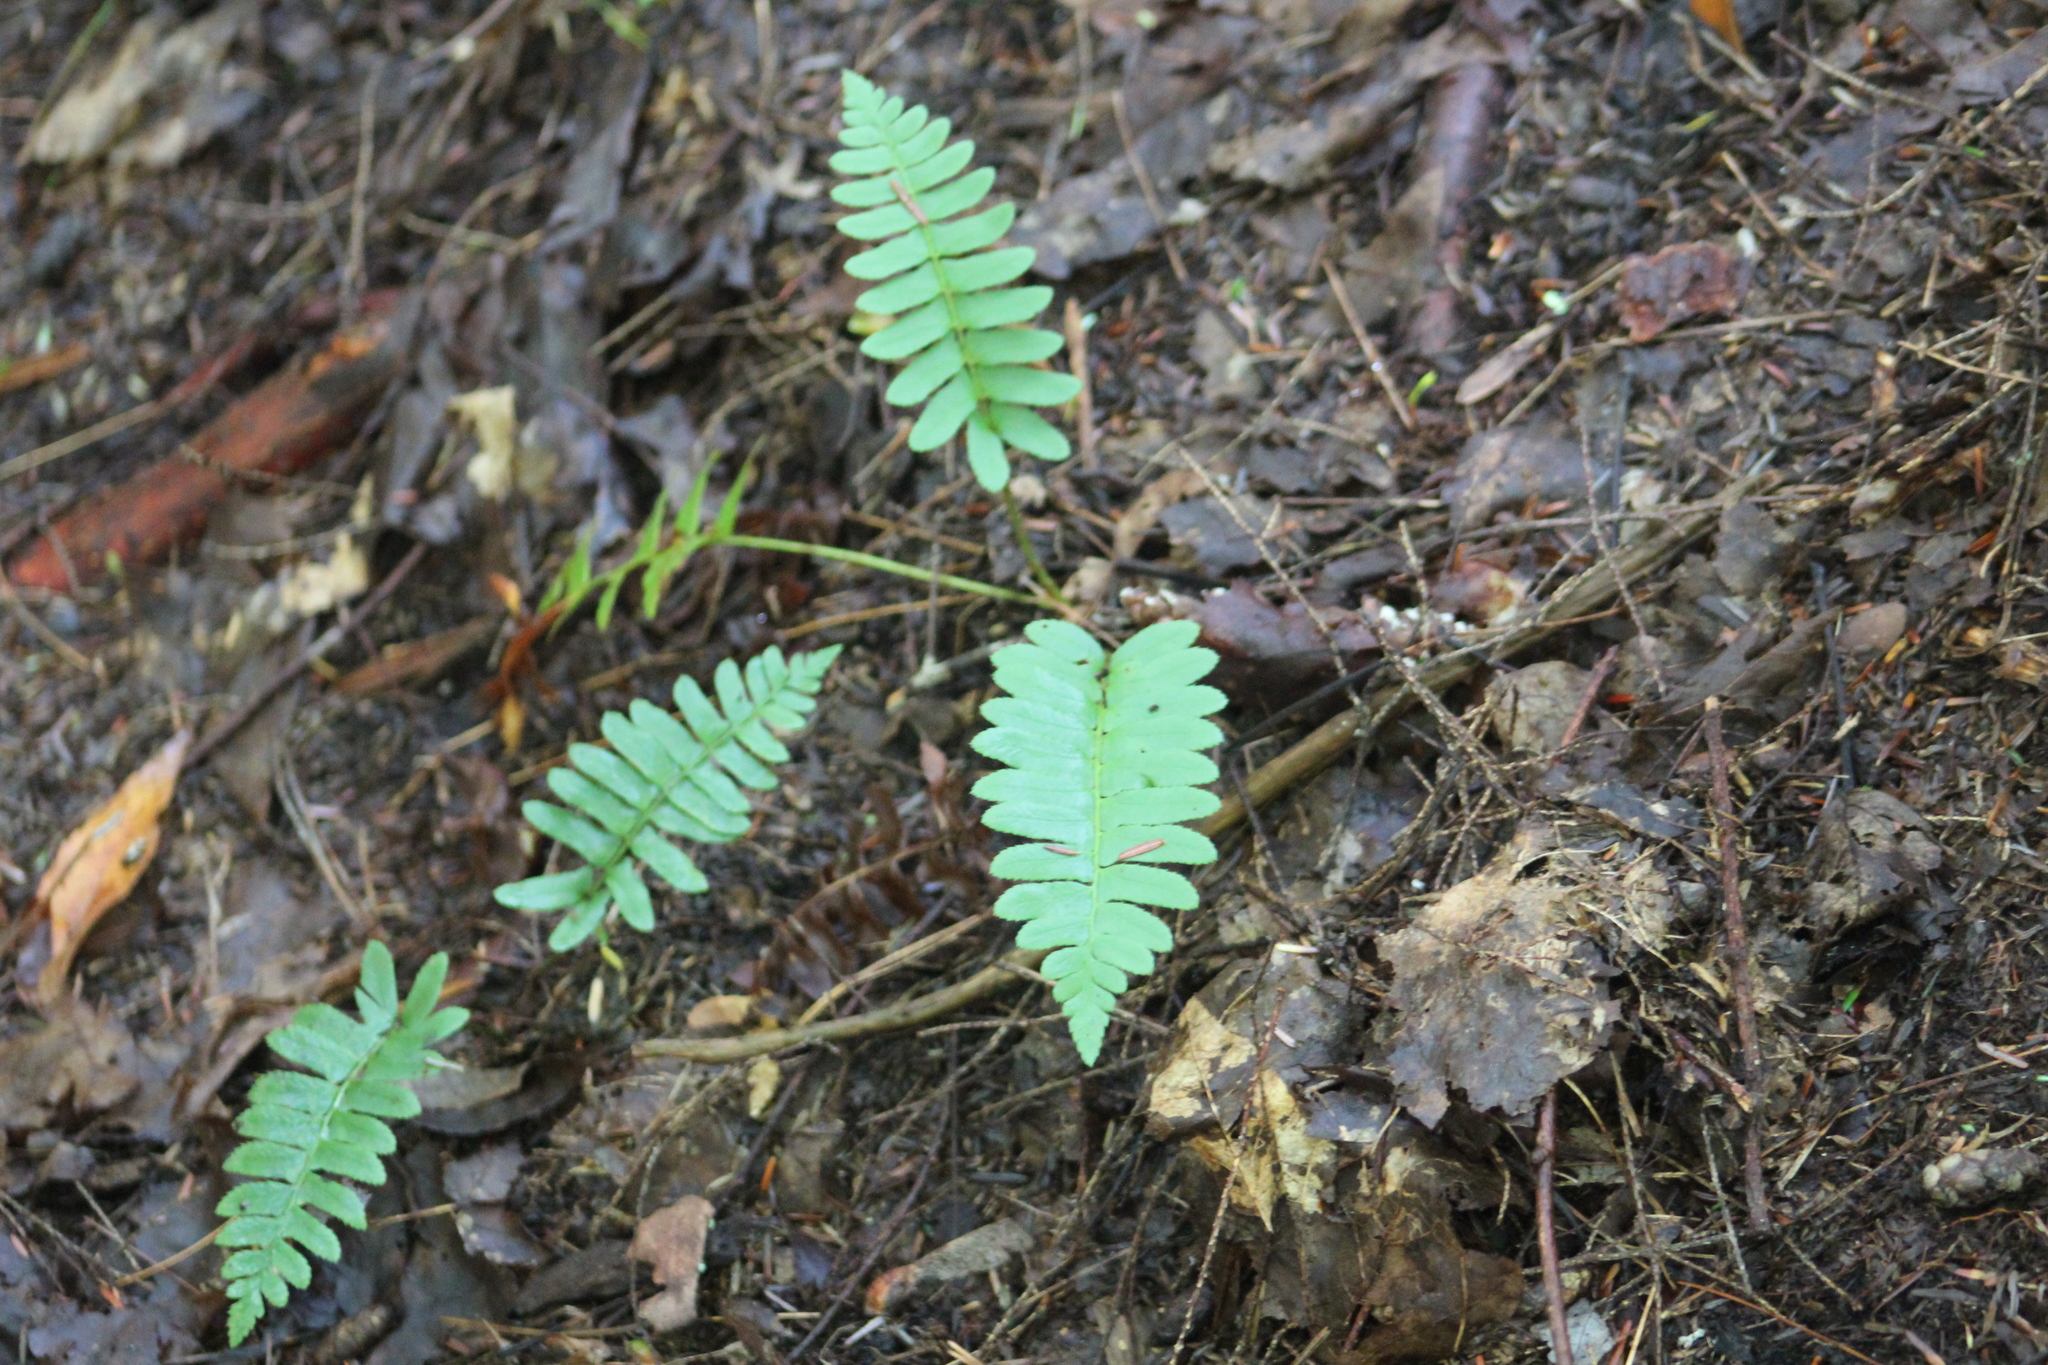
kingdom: Plantae
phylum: Tracheophyta
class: Polypodiopsida
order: Polypodiales
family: Dryopteridaceae
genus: Polystichum
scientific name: Polystichum acrostichoides
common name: Christmas fern
